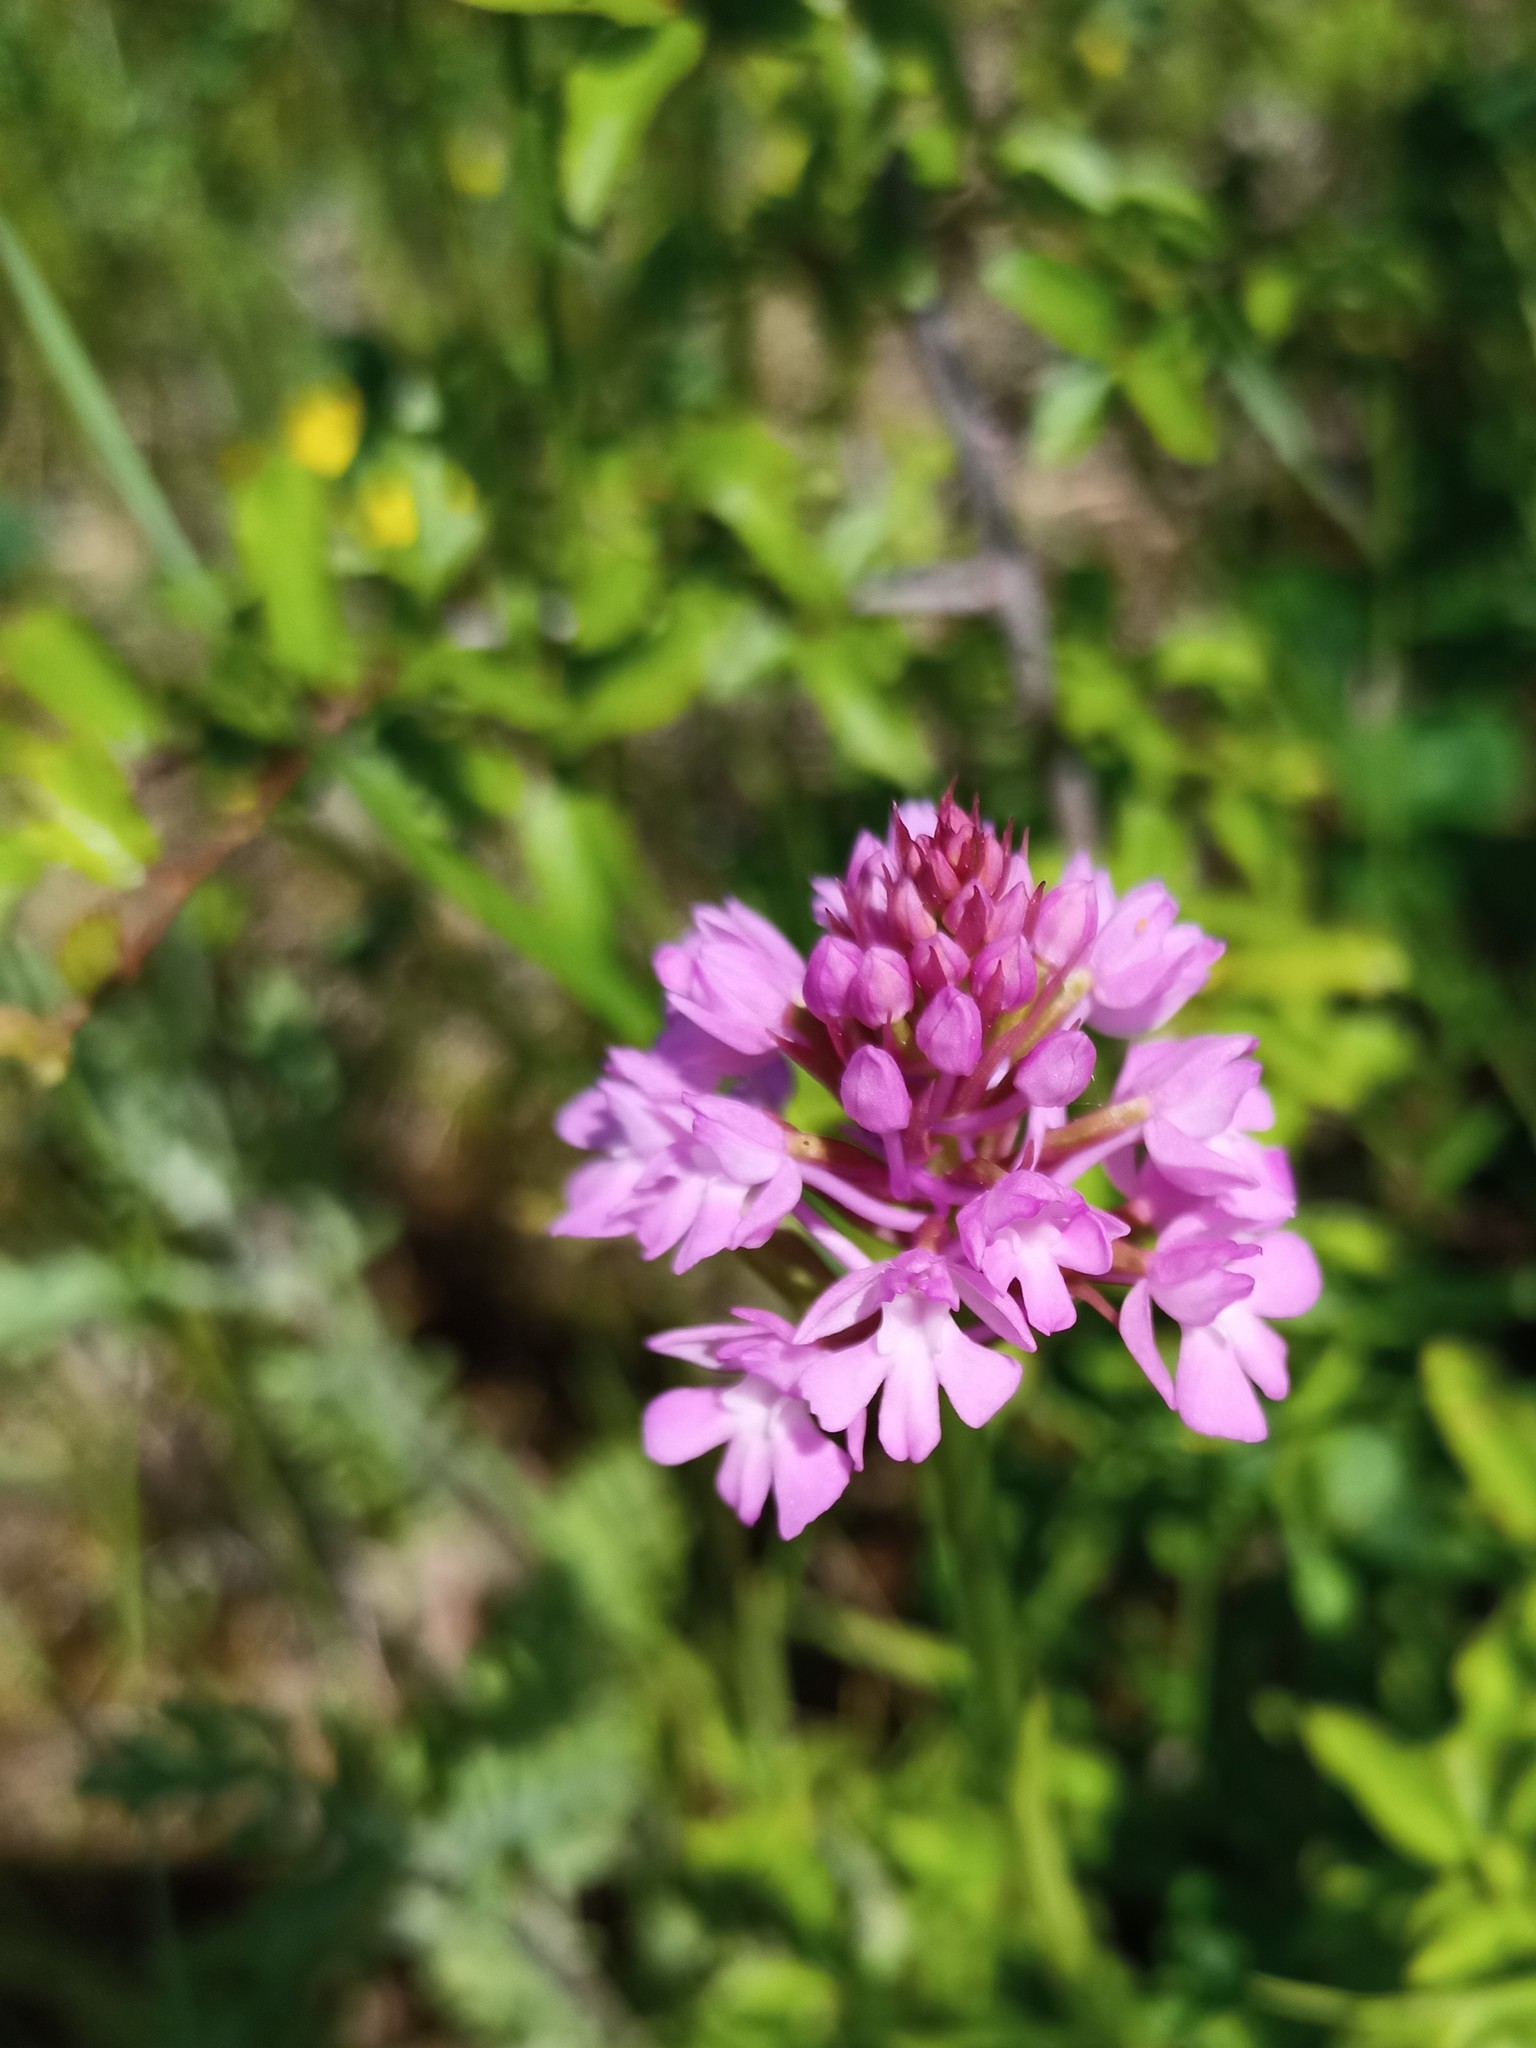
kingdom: Plantae
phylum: Tracheophyta
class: Liliopsida
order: Asparagales
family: Orchidaceae
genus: Anacamptis
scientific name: Anacamptis pyramidalis
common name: Pyramidal orchid
